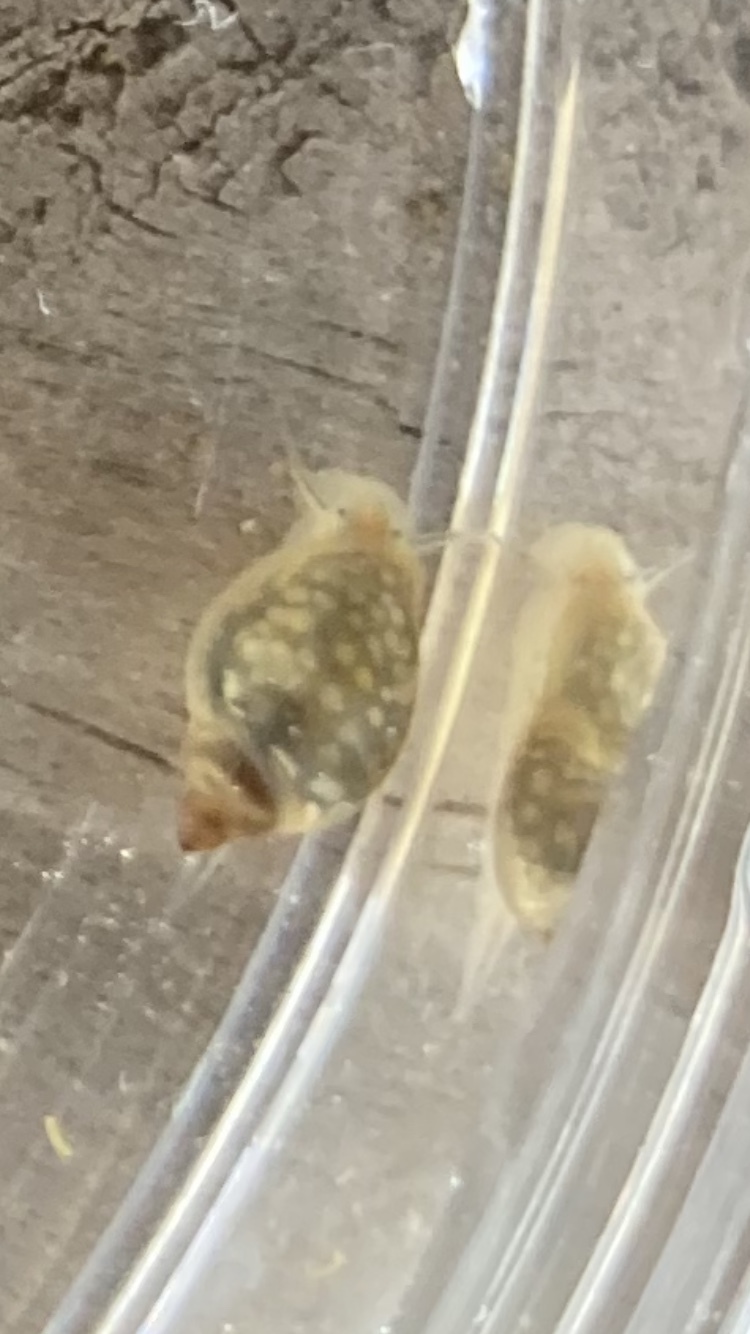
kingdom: Animalia
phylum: Mollusca
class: Gastropoda
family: Physidae
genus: Physella
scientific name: Physella acuta
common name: European physa
